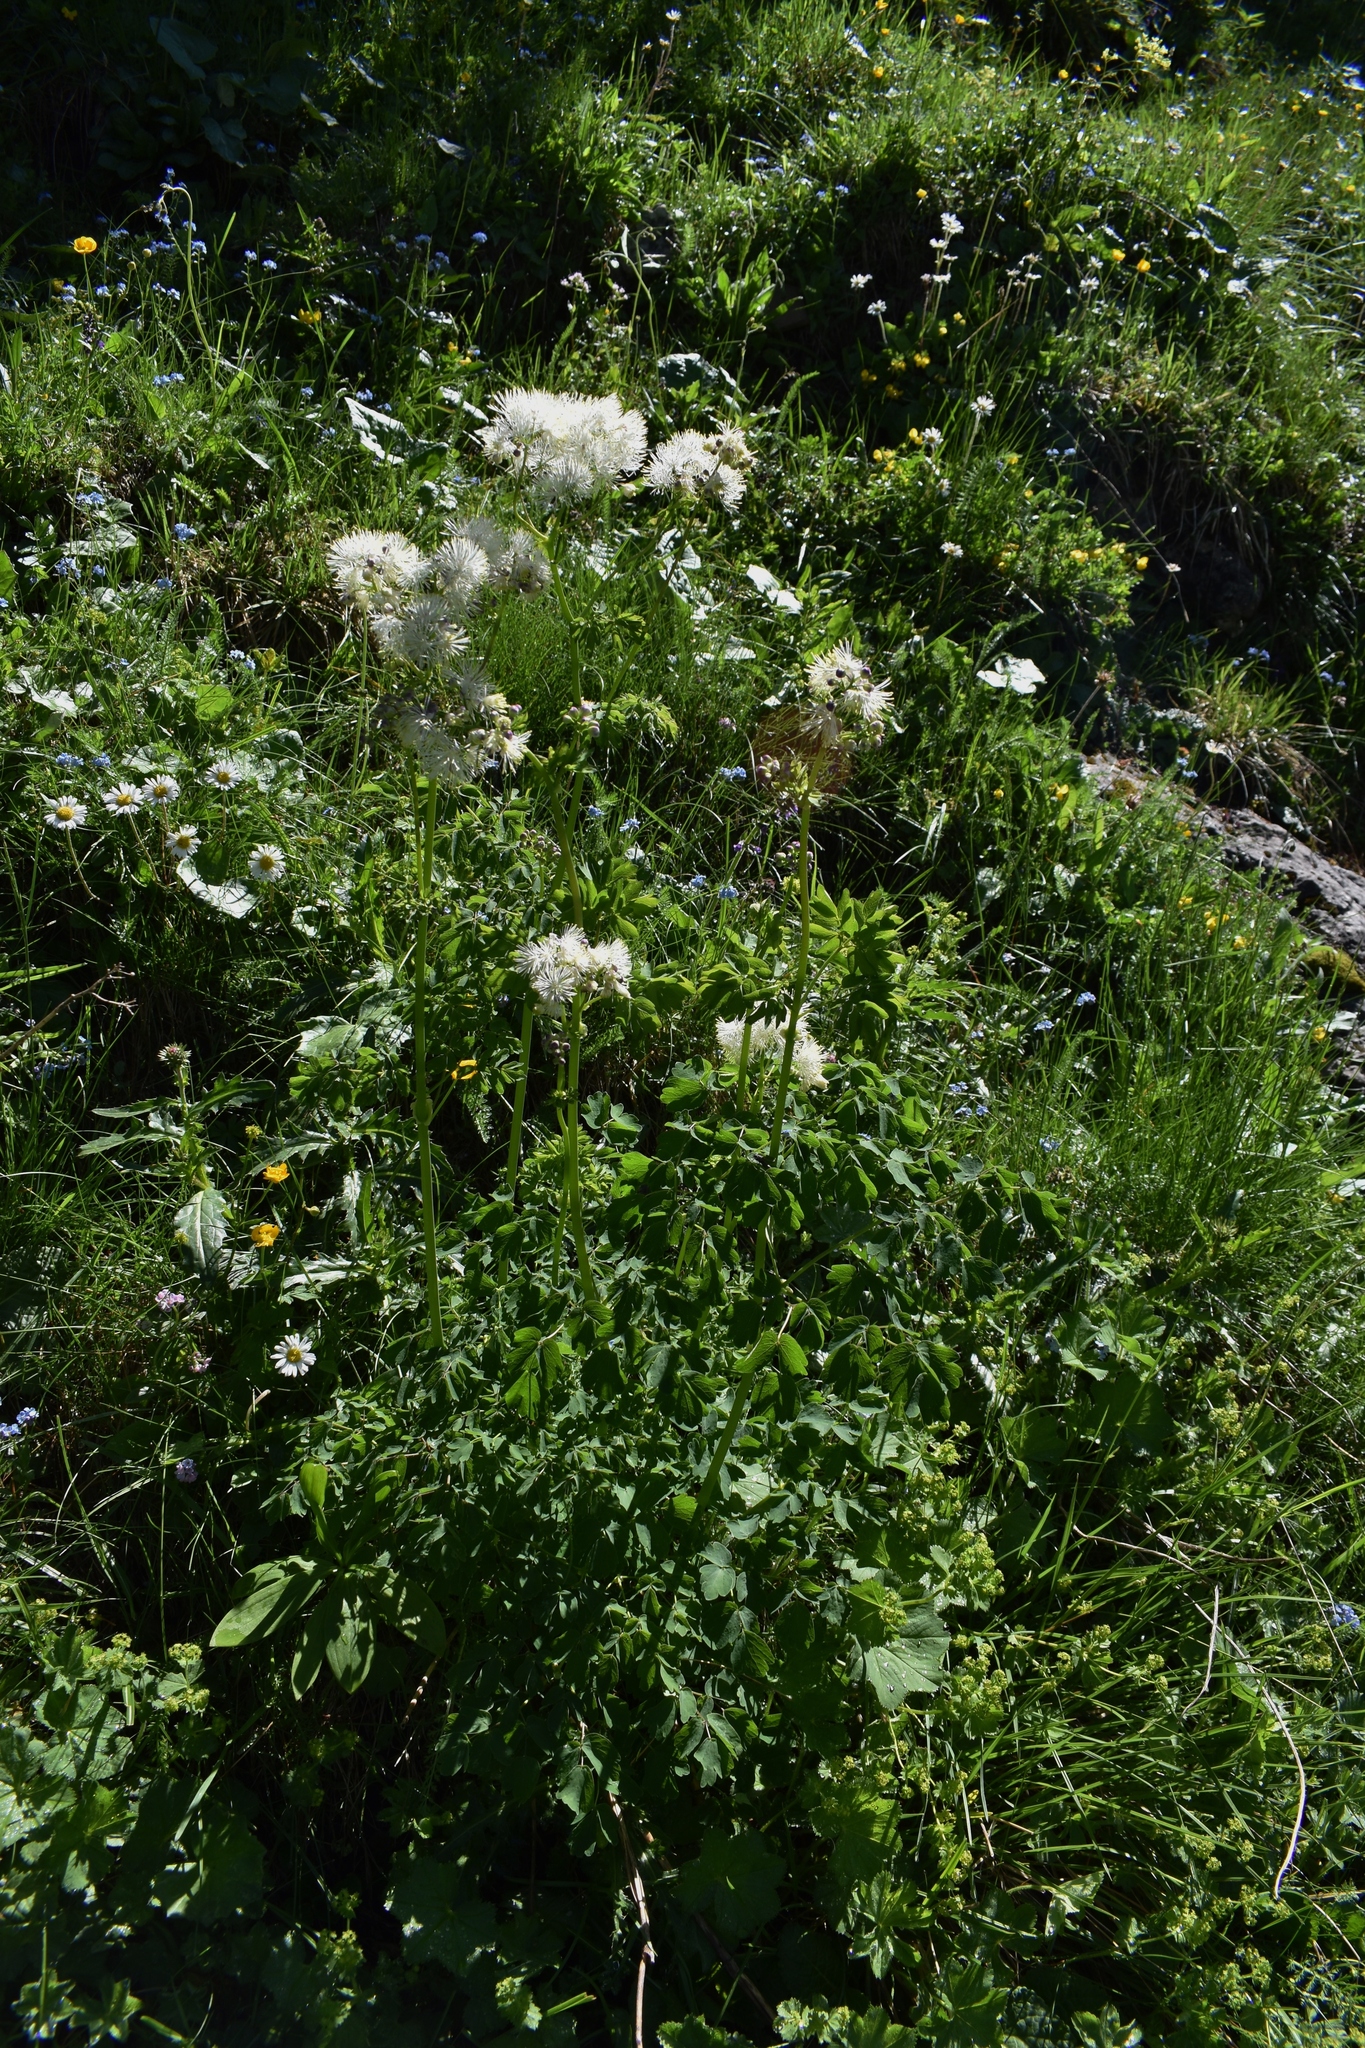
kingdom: Plantae
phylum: Tracheophyta
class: Magnoliopsida
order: Ranunculales
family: Ranunculaceae
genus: Thalictrum
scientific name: Thalictrum aquilegiifolium
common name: French meadow-rue
